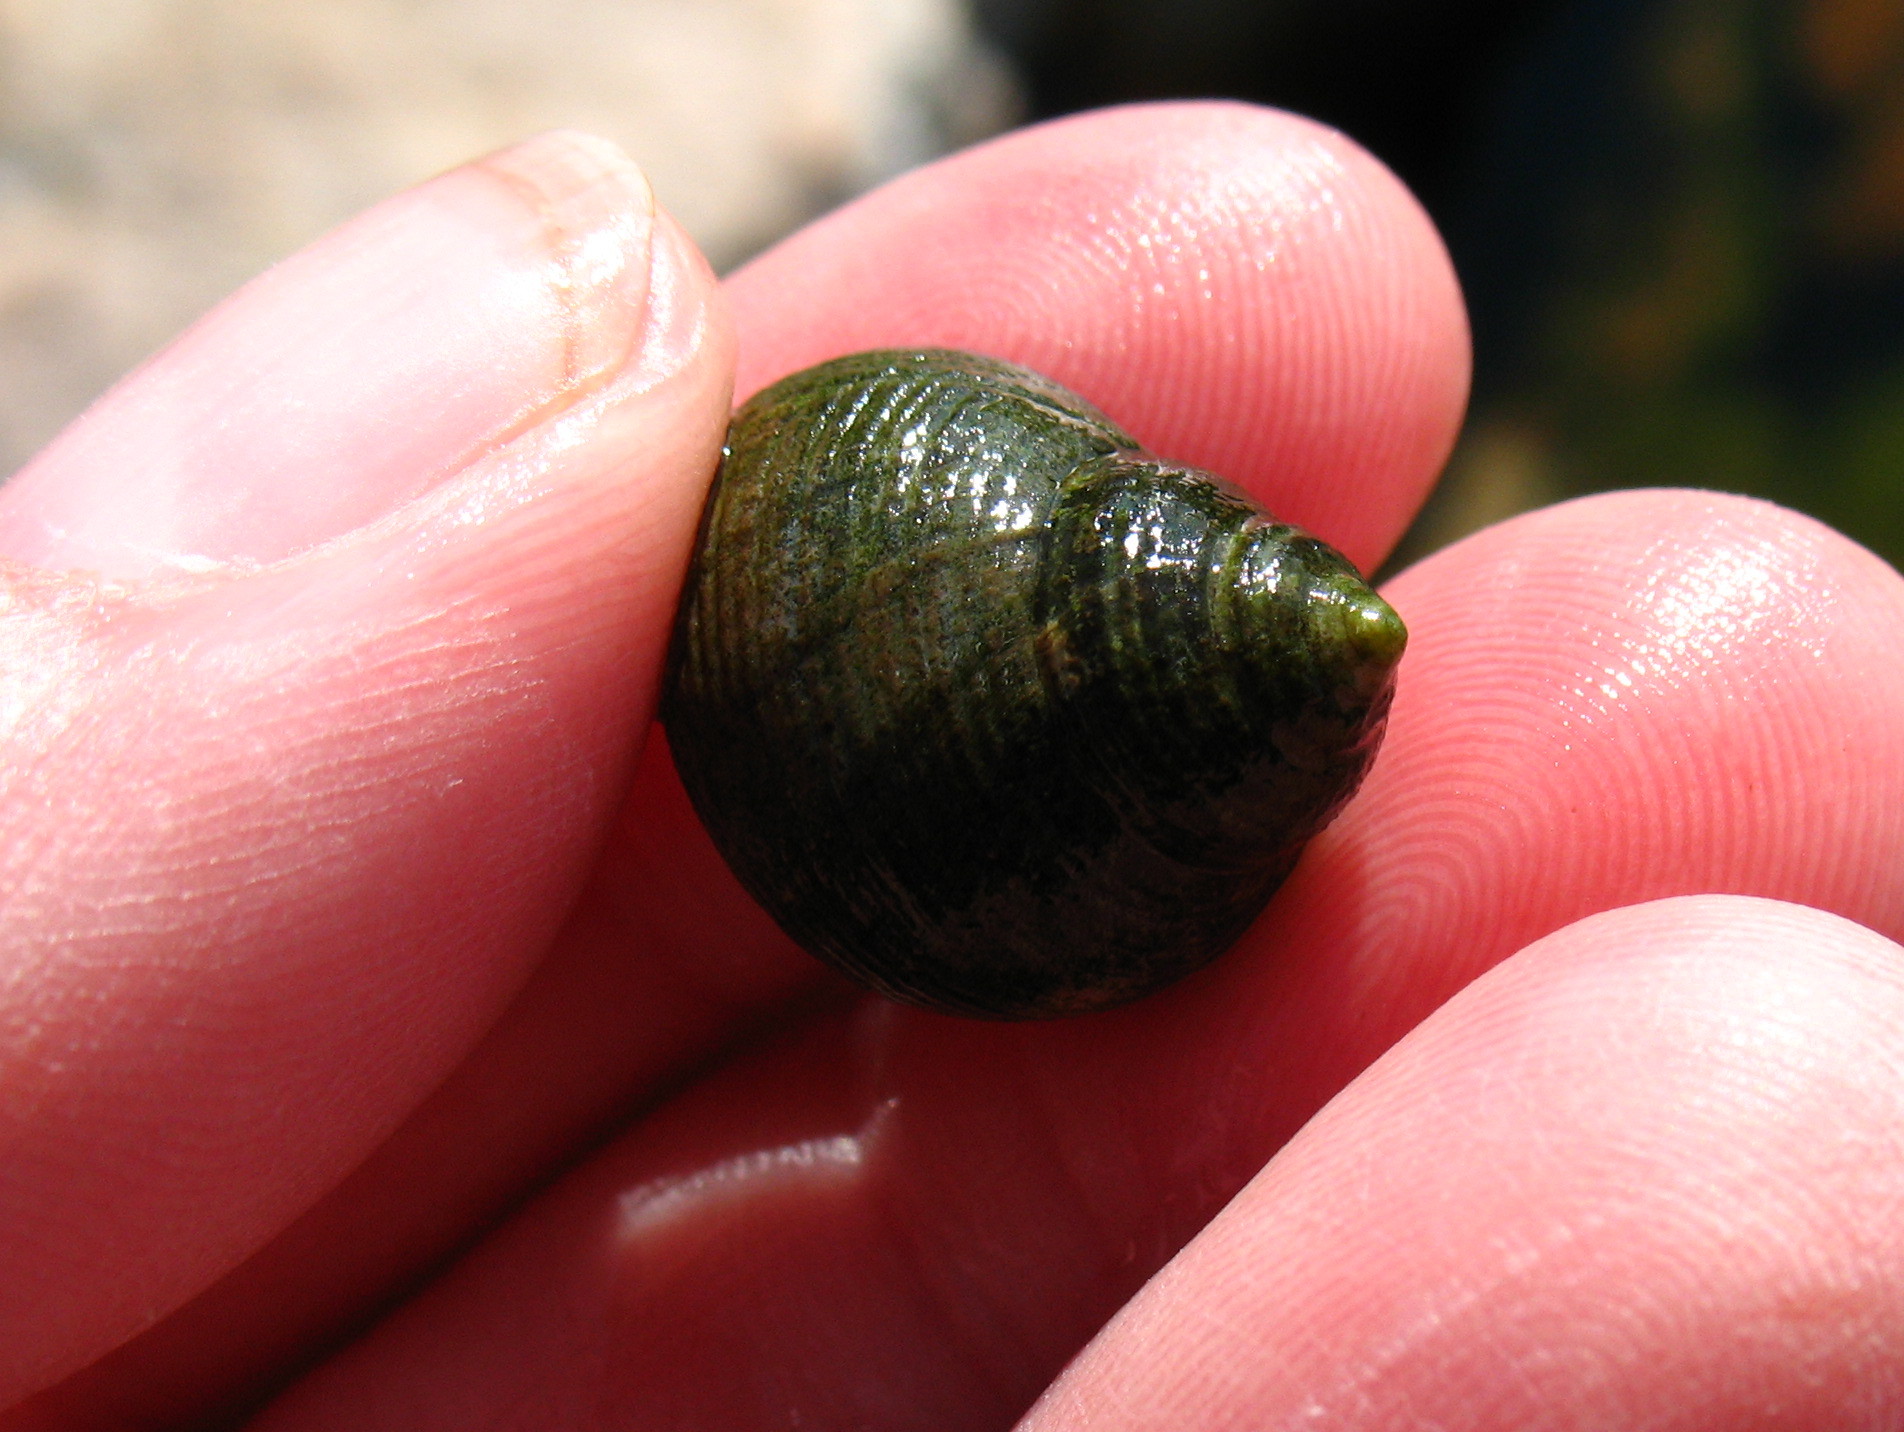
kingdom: Animalia
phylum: Mollusca
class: Gastropoda
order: Littorinimorpha
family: Littorinidae
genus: Littorina
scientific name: Littorina littorea
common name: Common periwinkle
